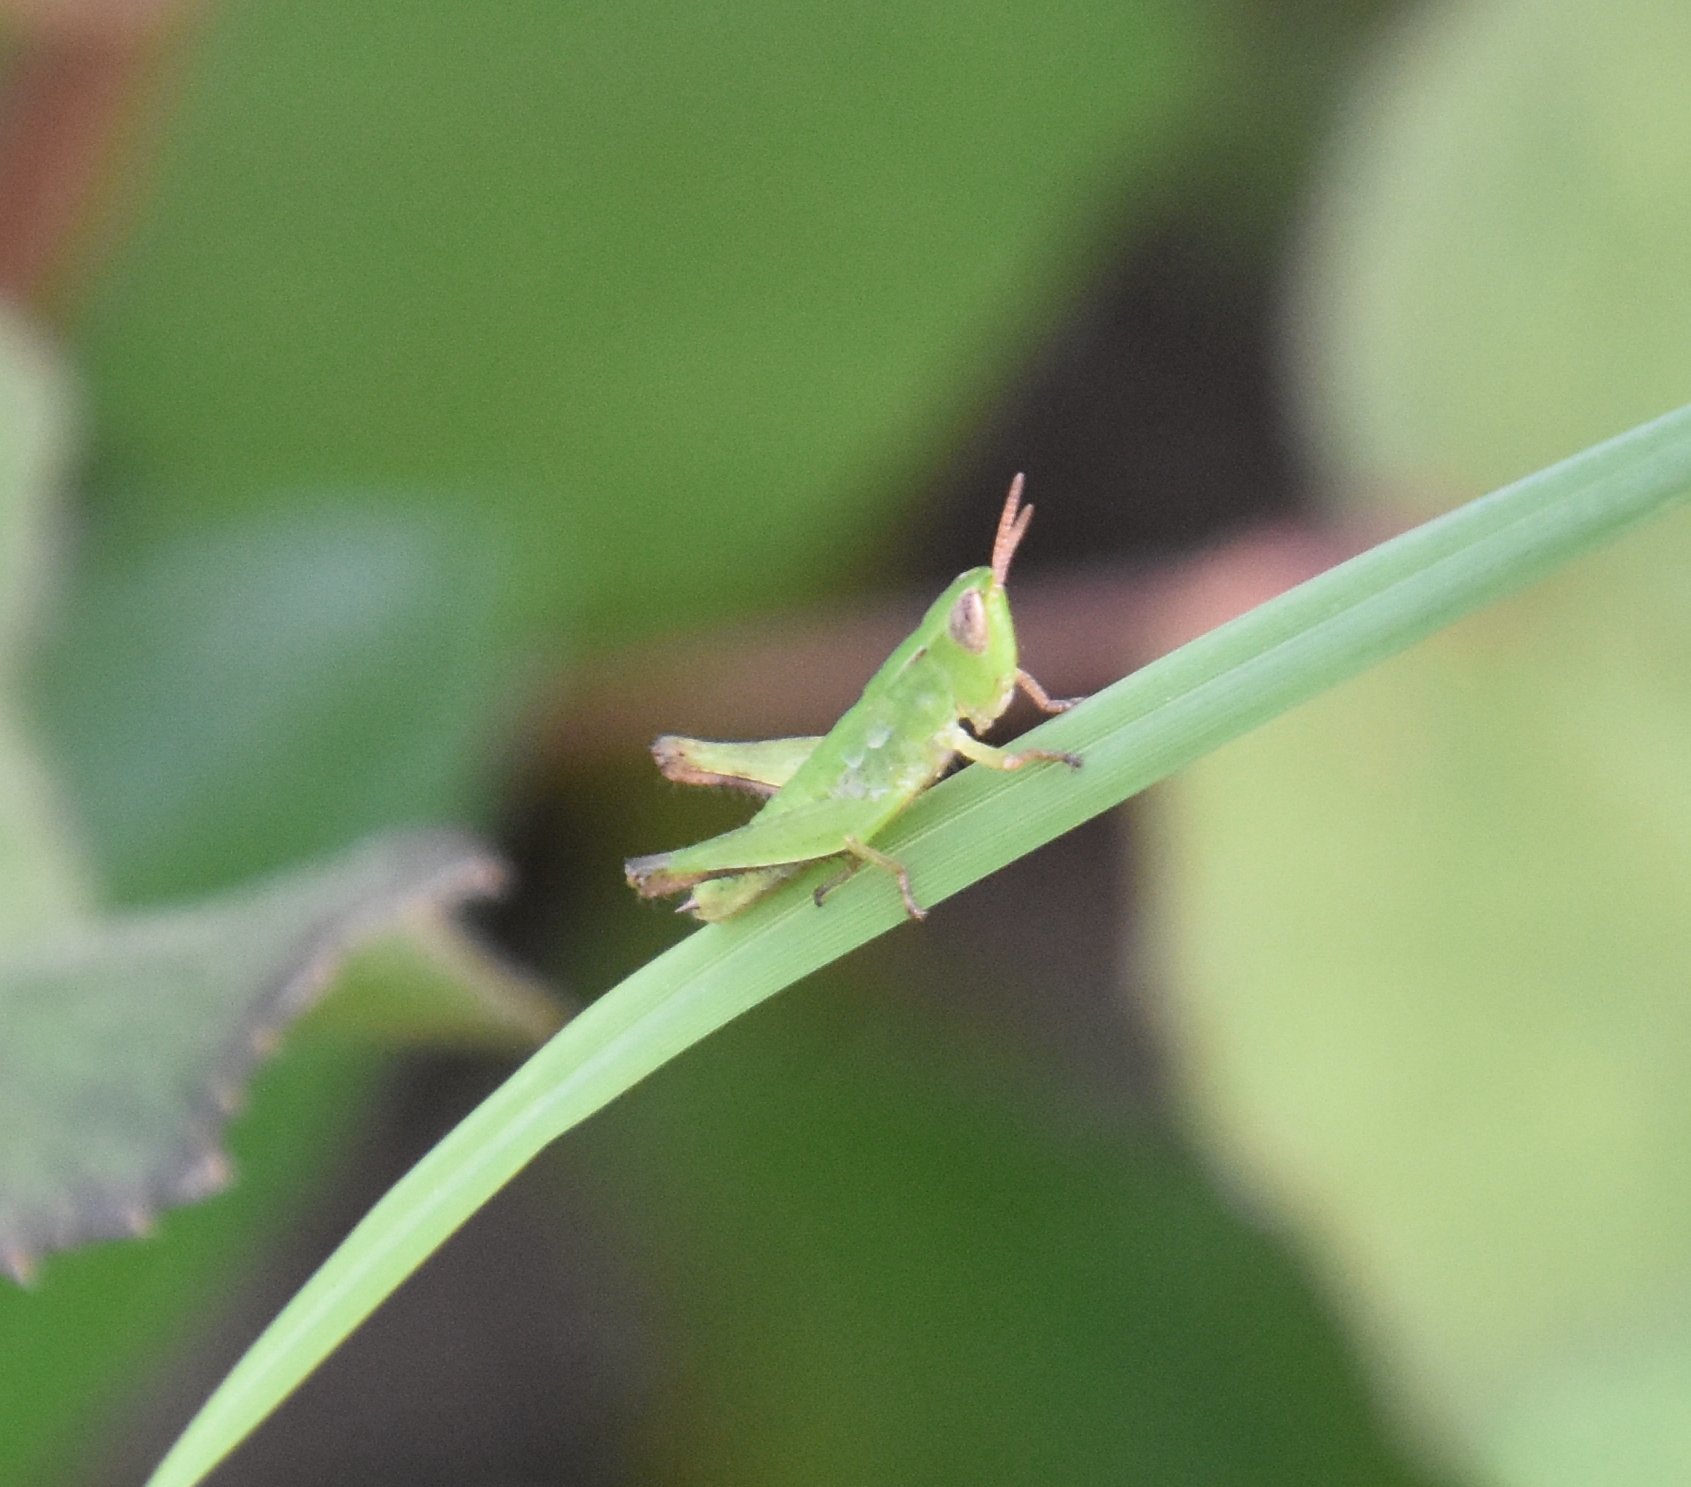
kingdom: Animalia
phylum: Arthropoda
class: Insecta
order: Orthoptera
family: Acrididae
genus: Dichromorpha
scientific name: Dichromorpha viridis
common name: Short-winged green grasshopper
